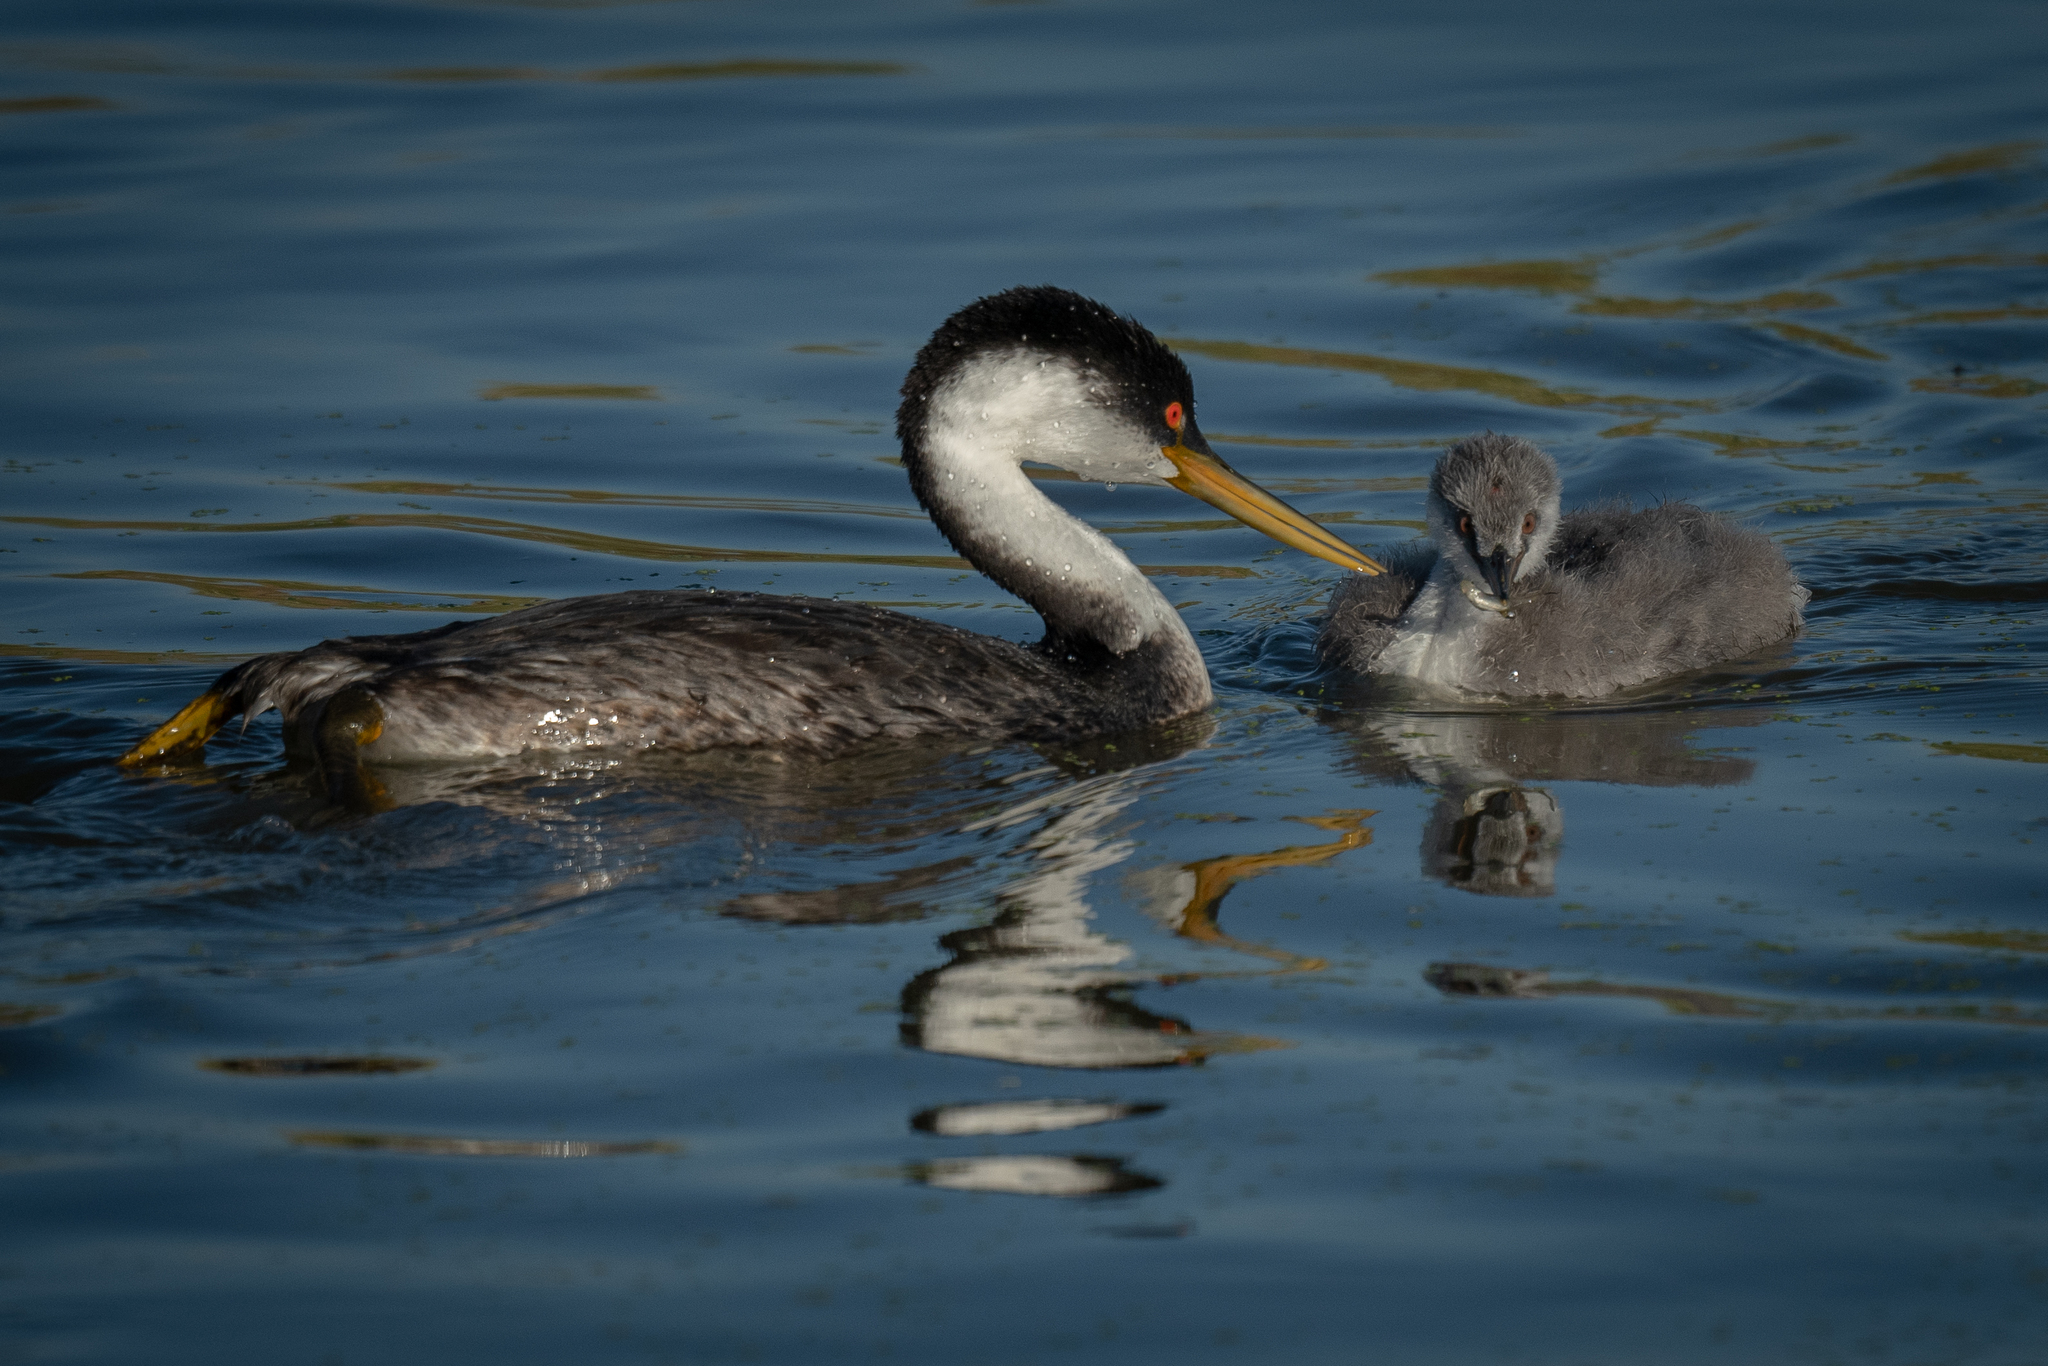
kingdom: Animalia
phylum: Chordata
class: Aves
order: Podicipediformes
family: Podicipedidae
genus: Aechmophorus
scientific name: Aechmophorus occidentalis
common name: Western grebe
